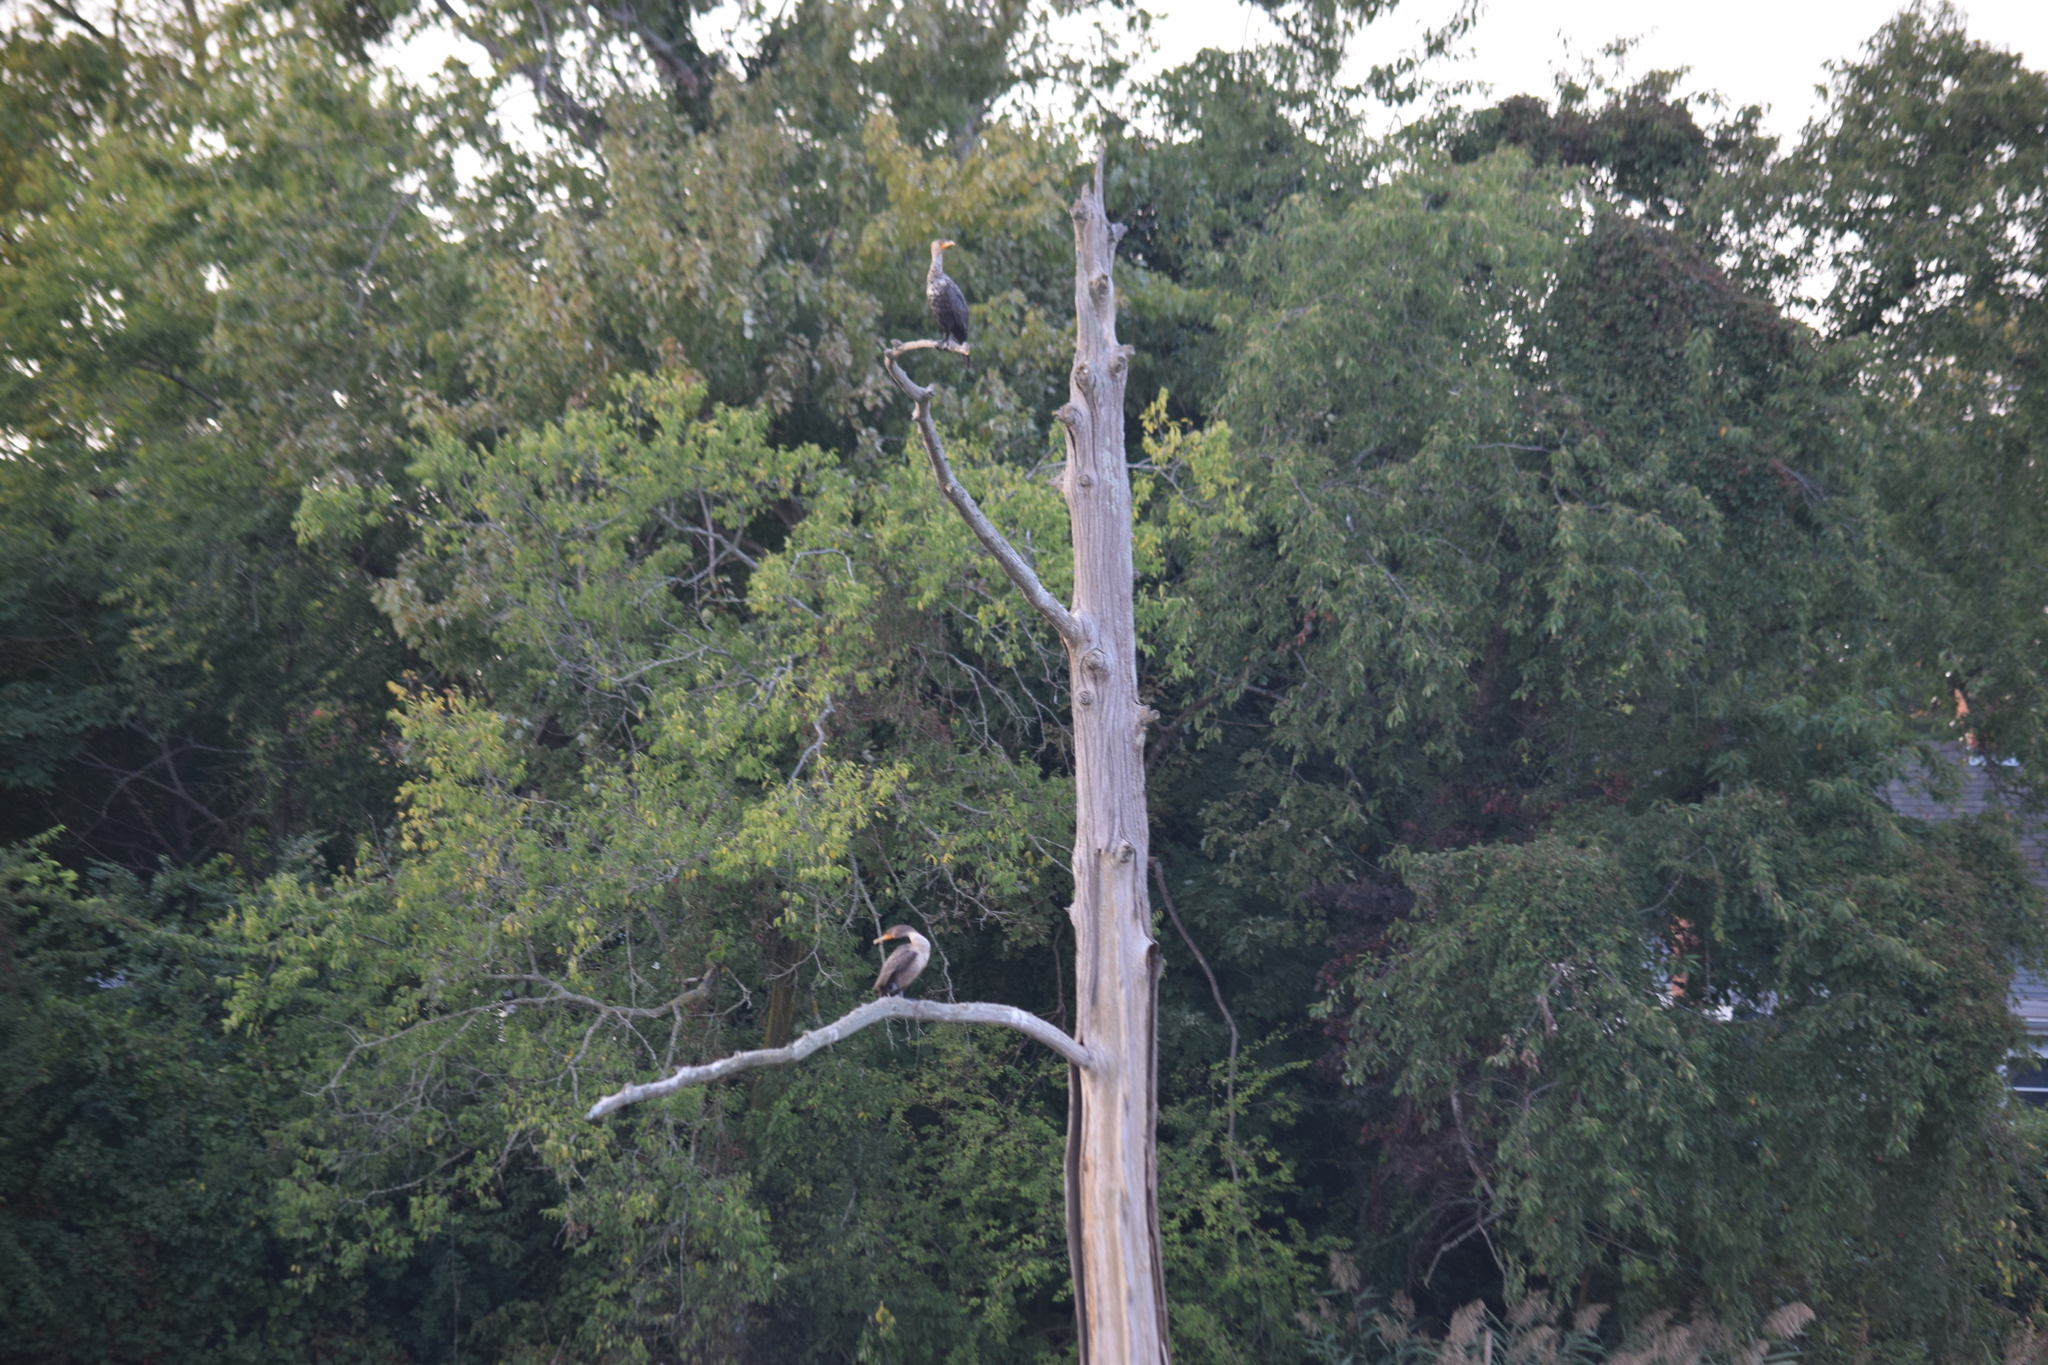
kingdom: Animalia
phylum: Chordata
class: Aves
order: Suliformes
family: Phalacrocoracidae
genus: Phalacrocorax
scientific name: Phalacrocorax auritus
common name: Double-crested cormorant
